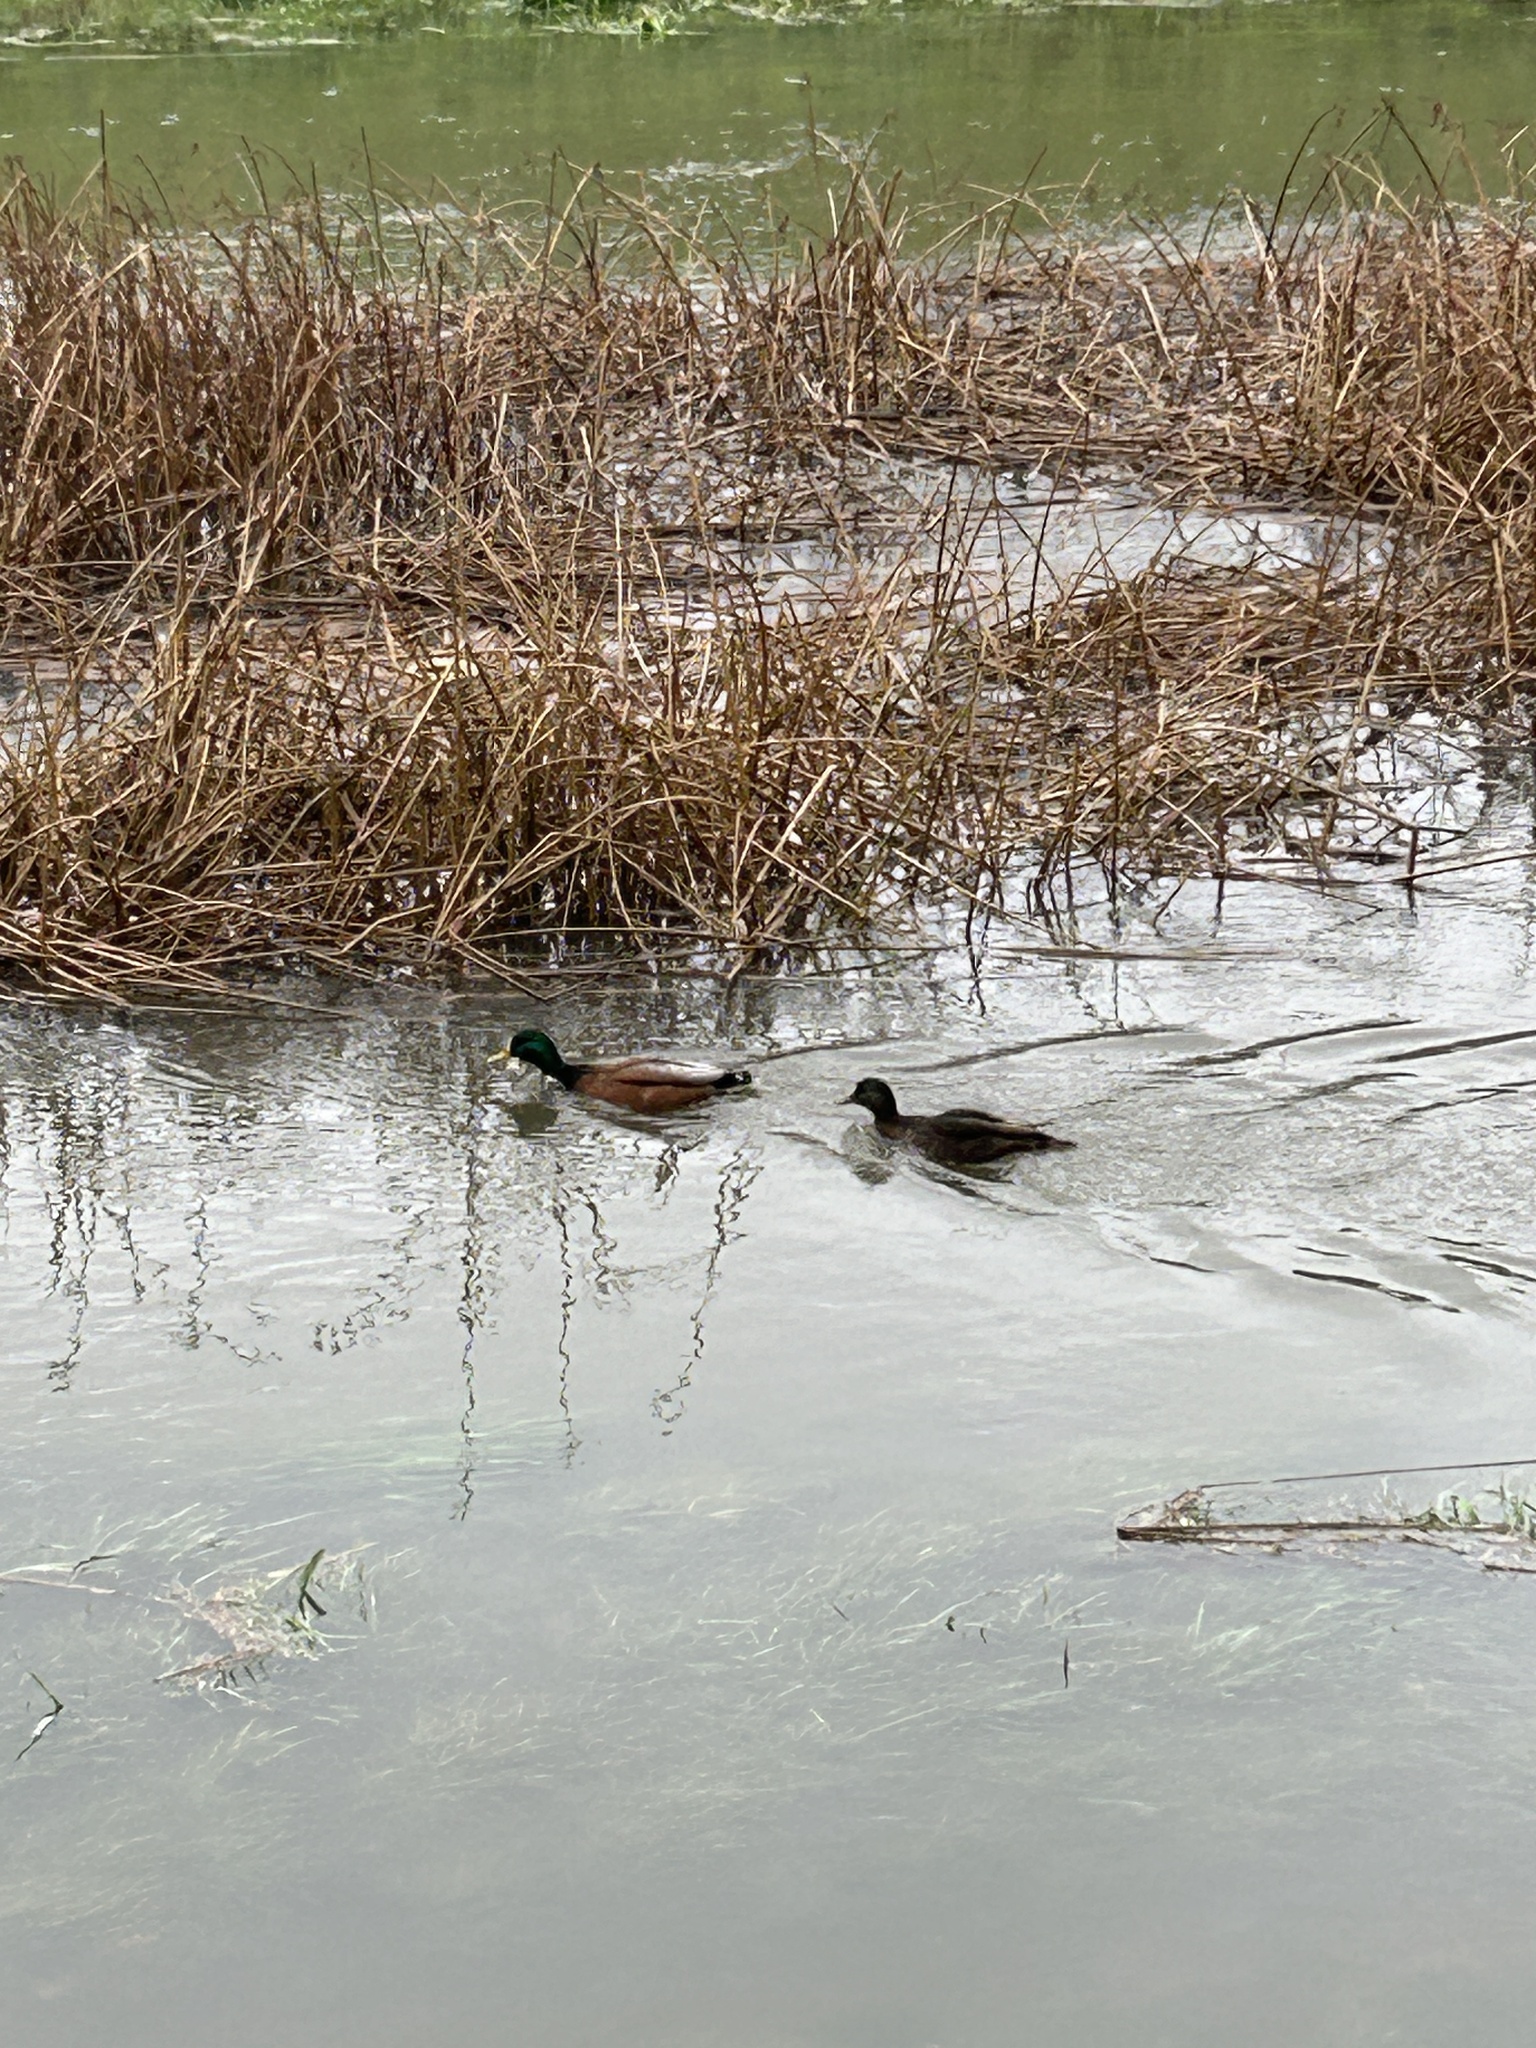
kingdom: Animalia
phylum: Chordata
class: Aves
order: Anseriformes
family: Anatidae
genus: Anas
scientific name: Anas platyrhynchos
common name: Mallard
